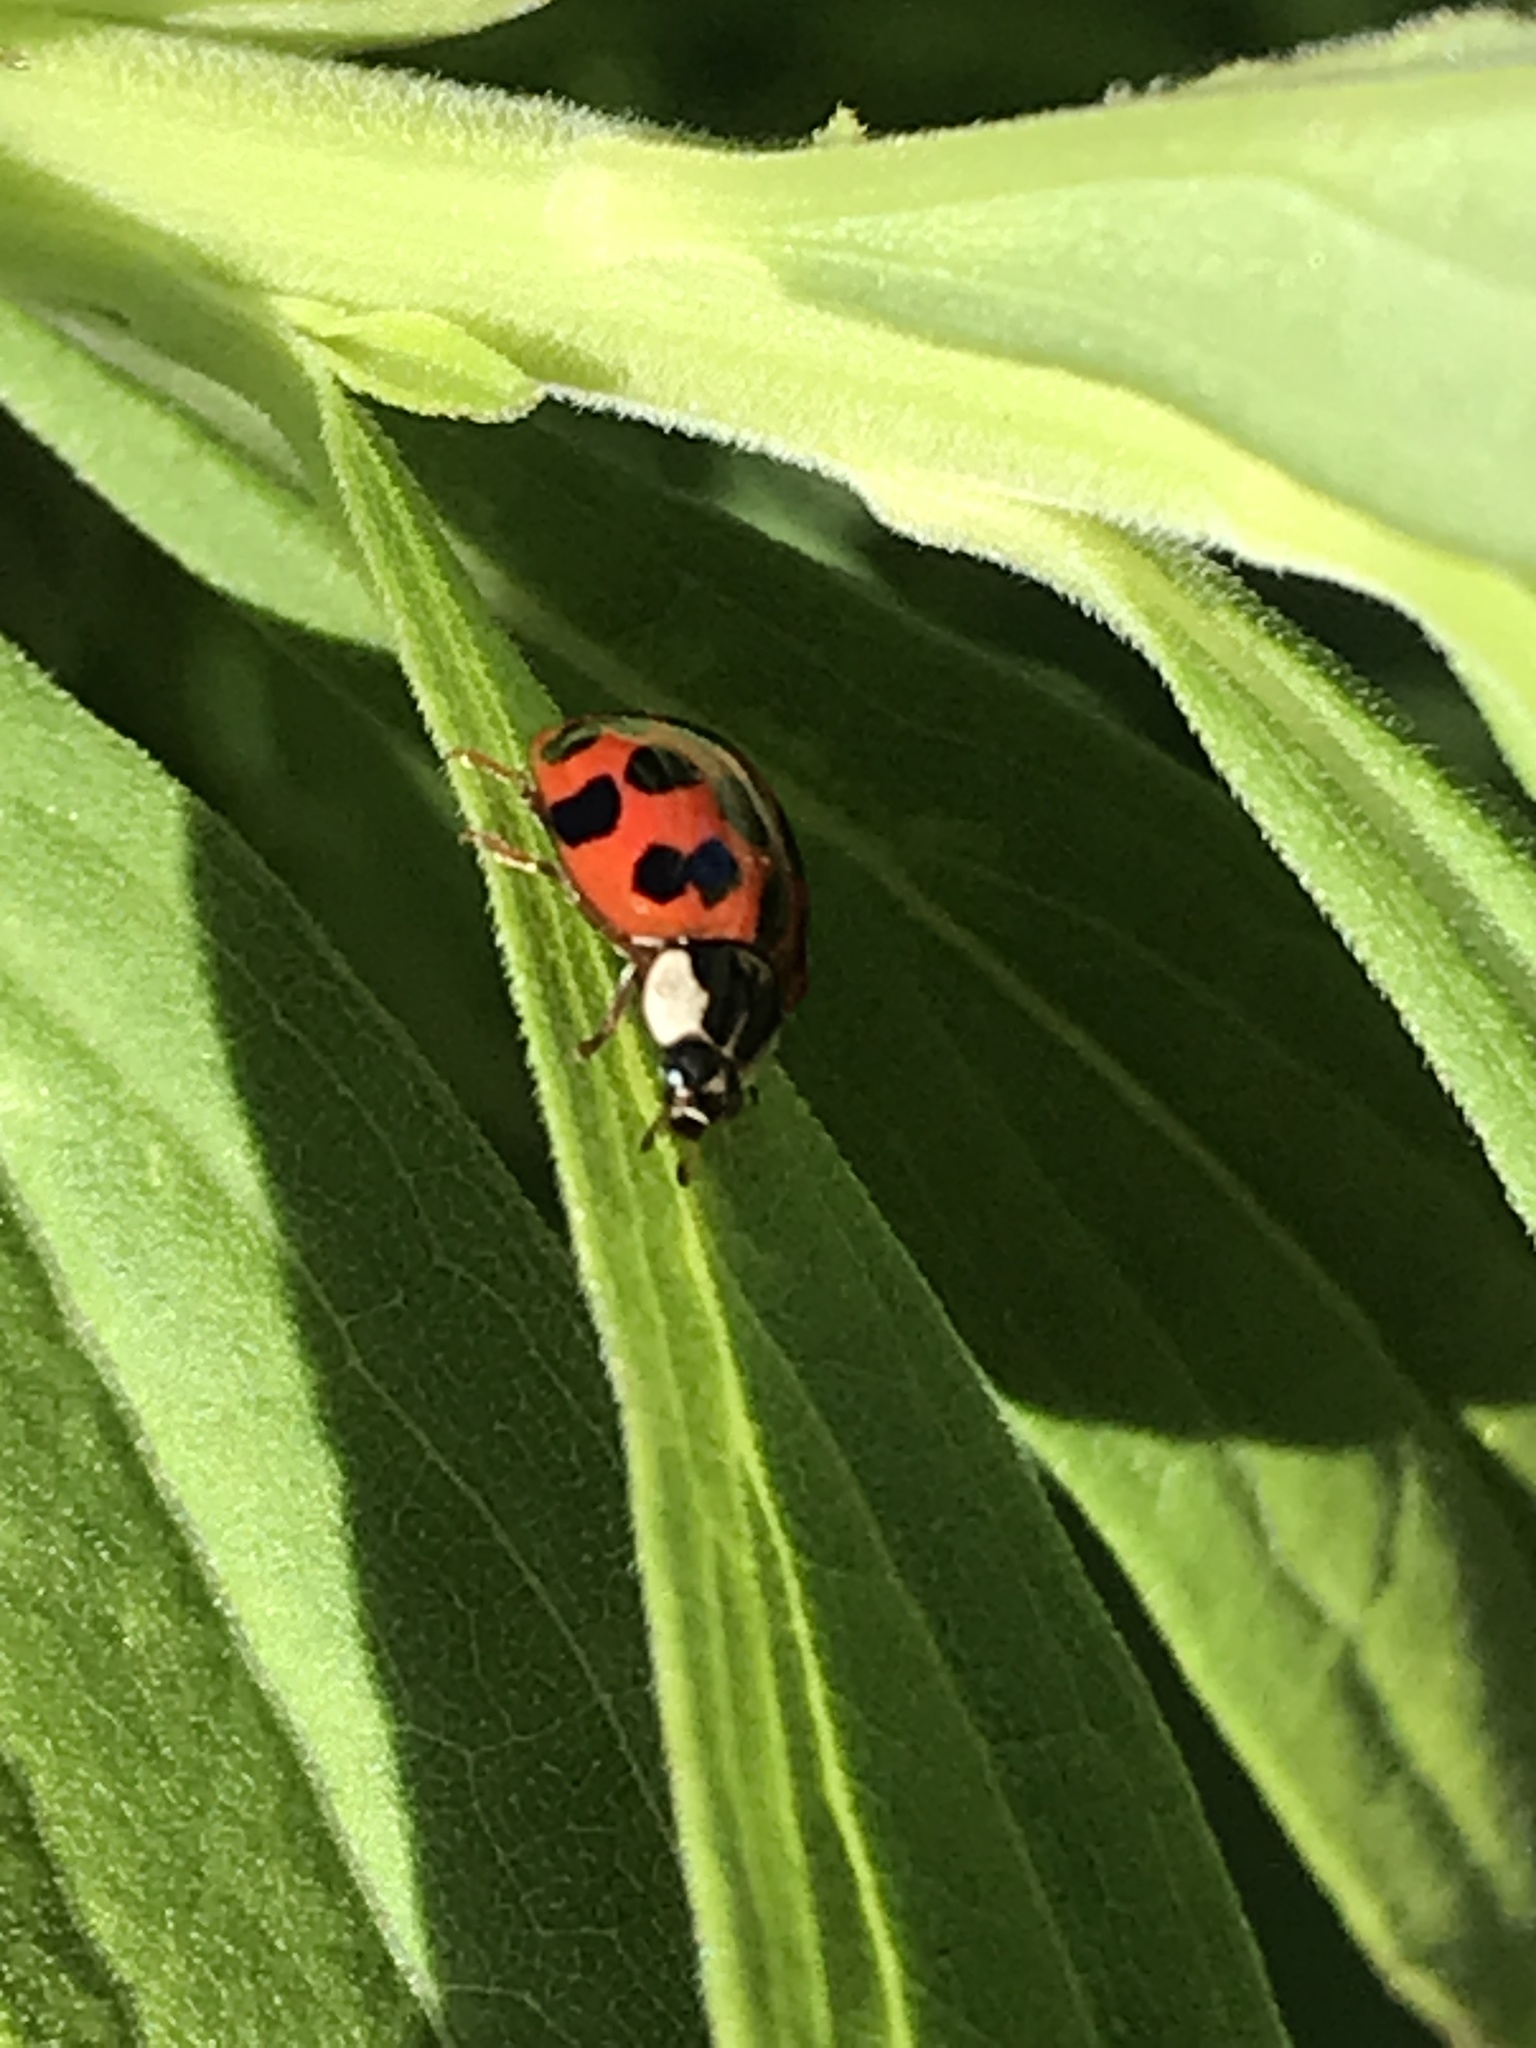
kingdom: Animalia
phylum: Arthropoda
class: Insecta
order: Coleoptera
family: Coccinellidae
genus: Harmonia
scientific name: Harmonia axyridis
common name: Harlequin ladybird
